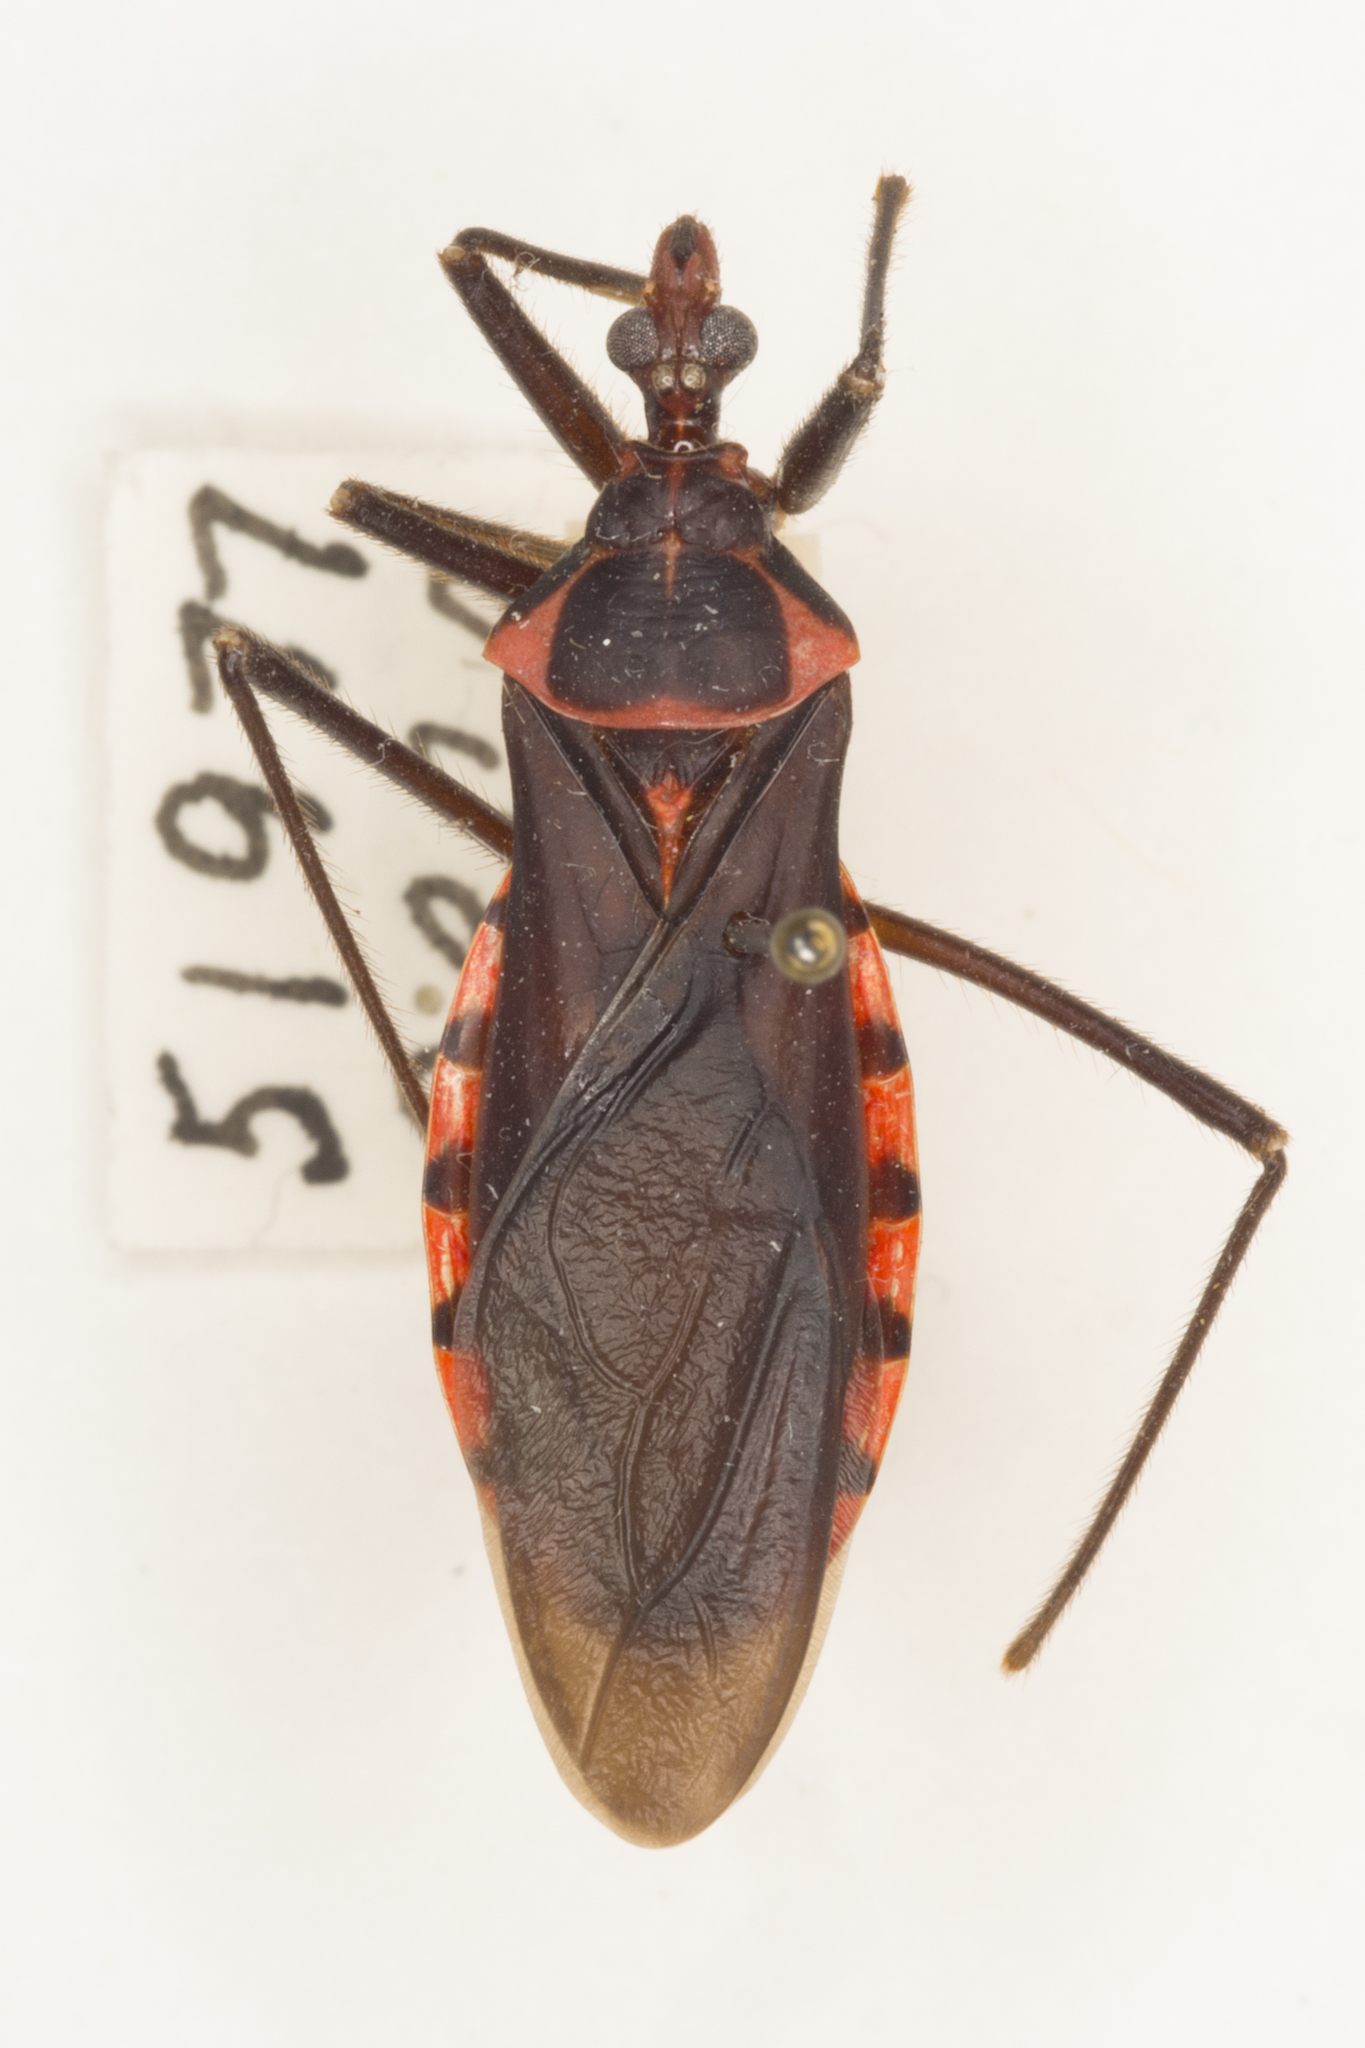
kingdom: Animalia
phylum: Arthropoda
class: Insecta
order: Hemiptera
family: Reduviidae
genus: Pseudozelurus
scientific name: Pseudozelurus arizonicus
